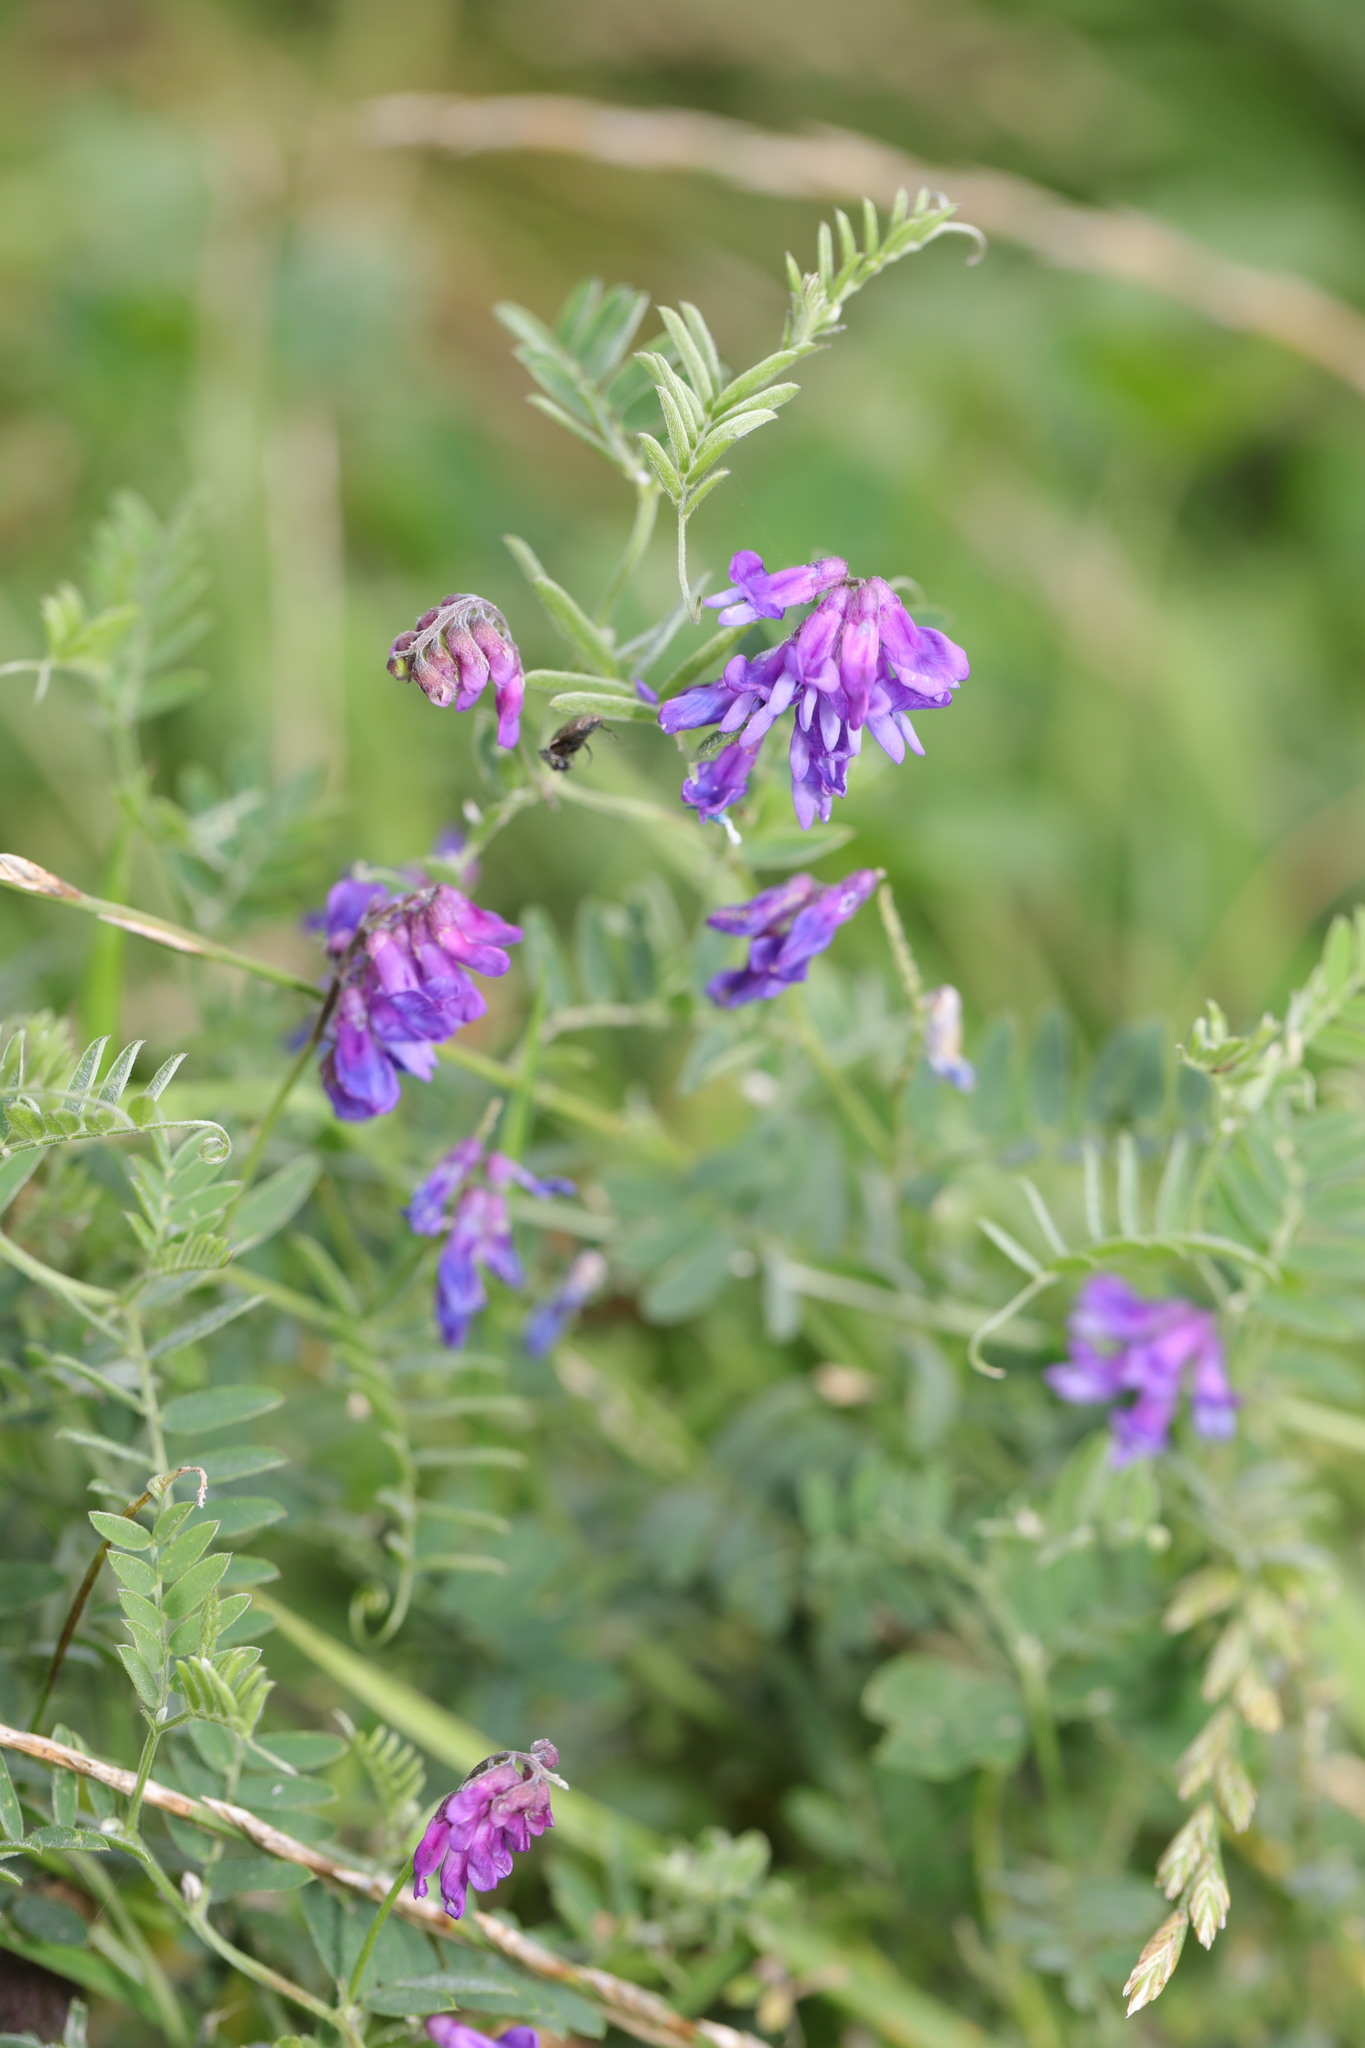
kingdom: Plantae
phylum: Tracheophyta
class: Magnoliopsida
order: Fabales
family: Fabaceae
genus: Vicia
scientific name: Vicia cracca
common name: Bird vetch
